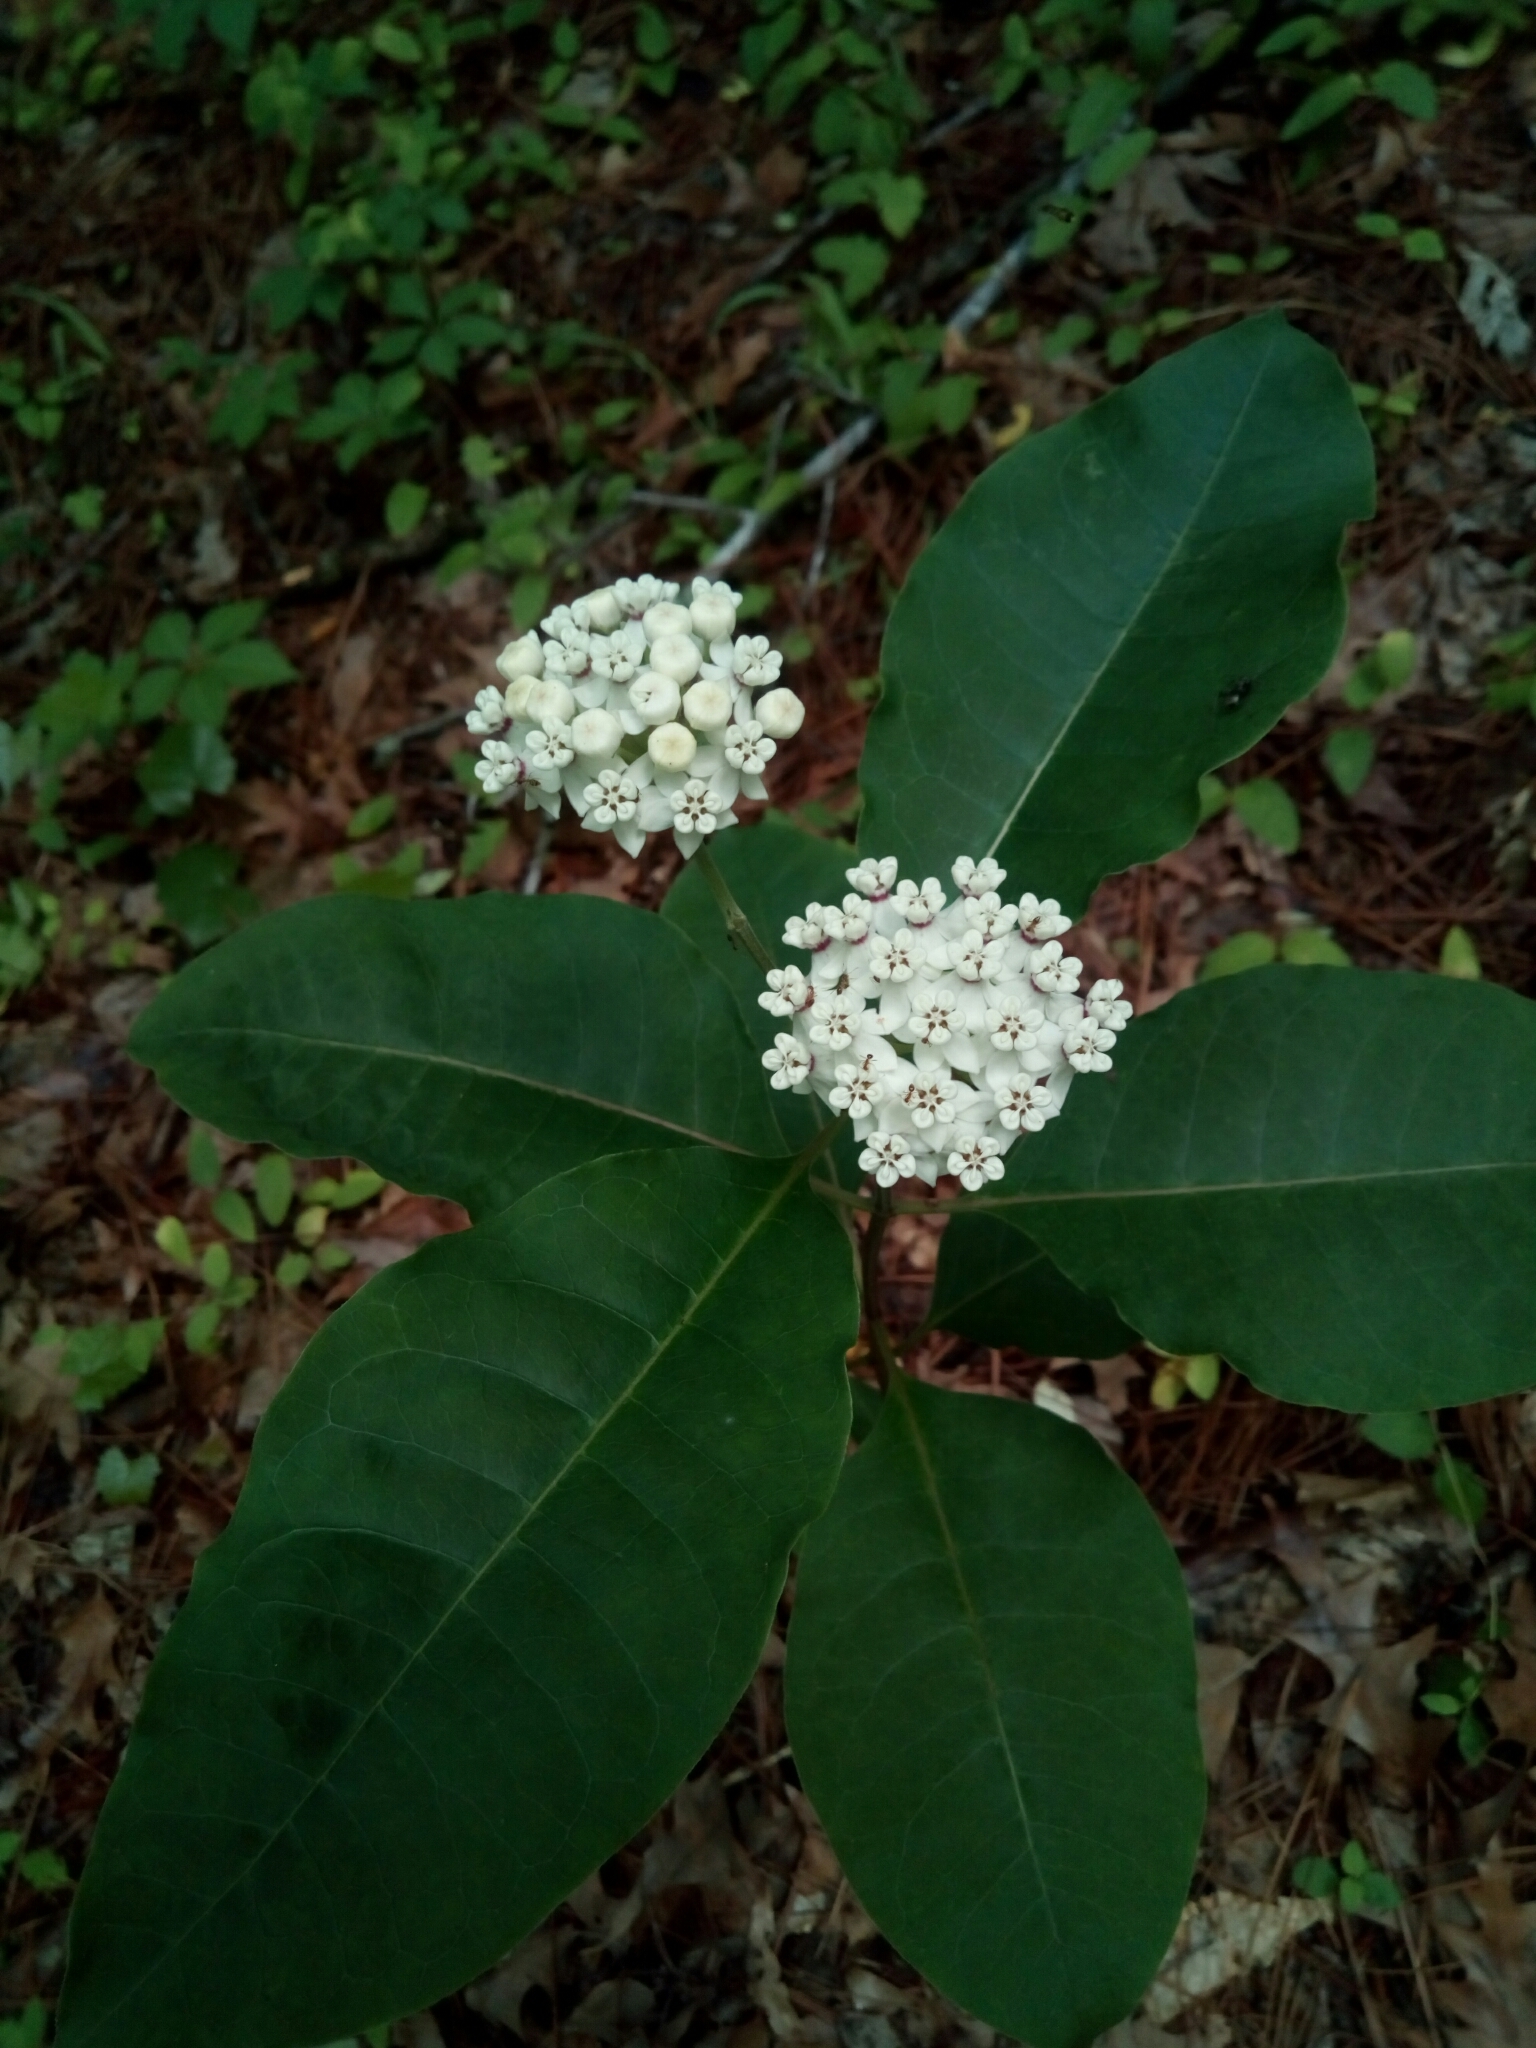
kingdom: Plantae
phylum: Tracheophyta
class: Magnoliopsida
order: Gentianales
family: Apocynaceae
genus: Asclepias
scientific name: Asclepias variegata
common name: Variegated milkweed
